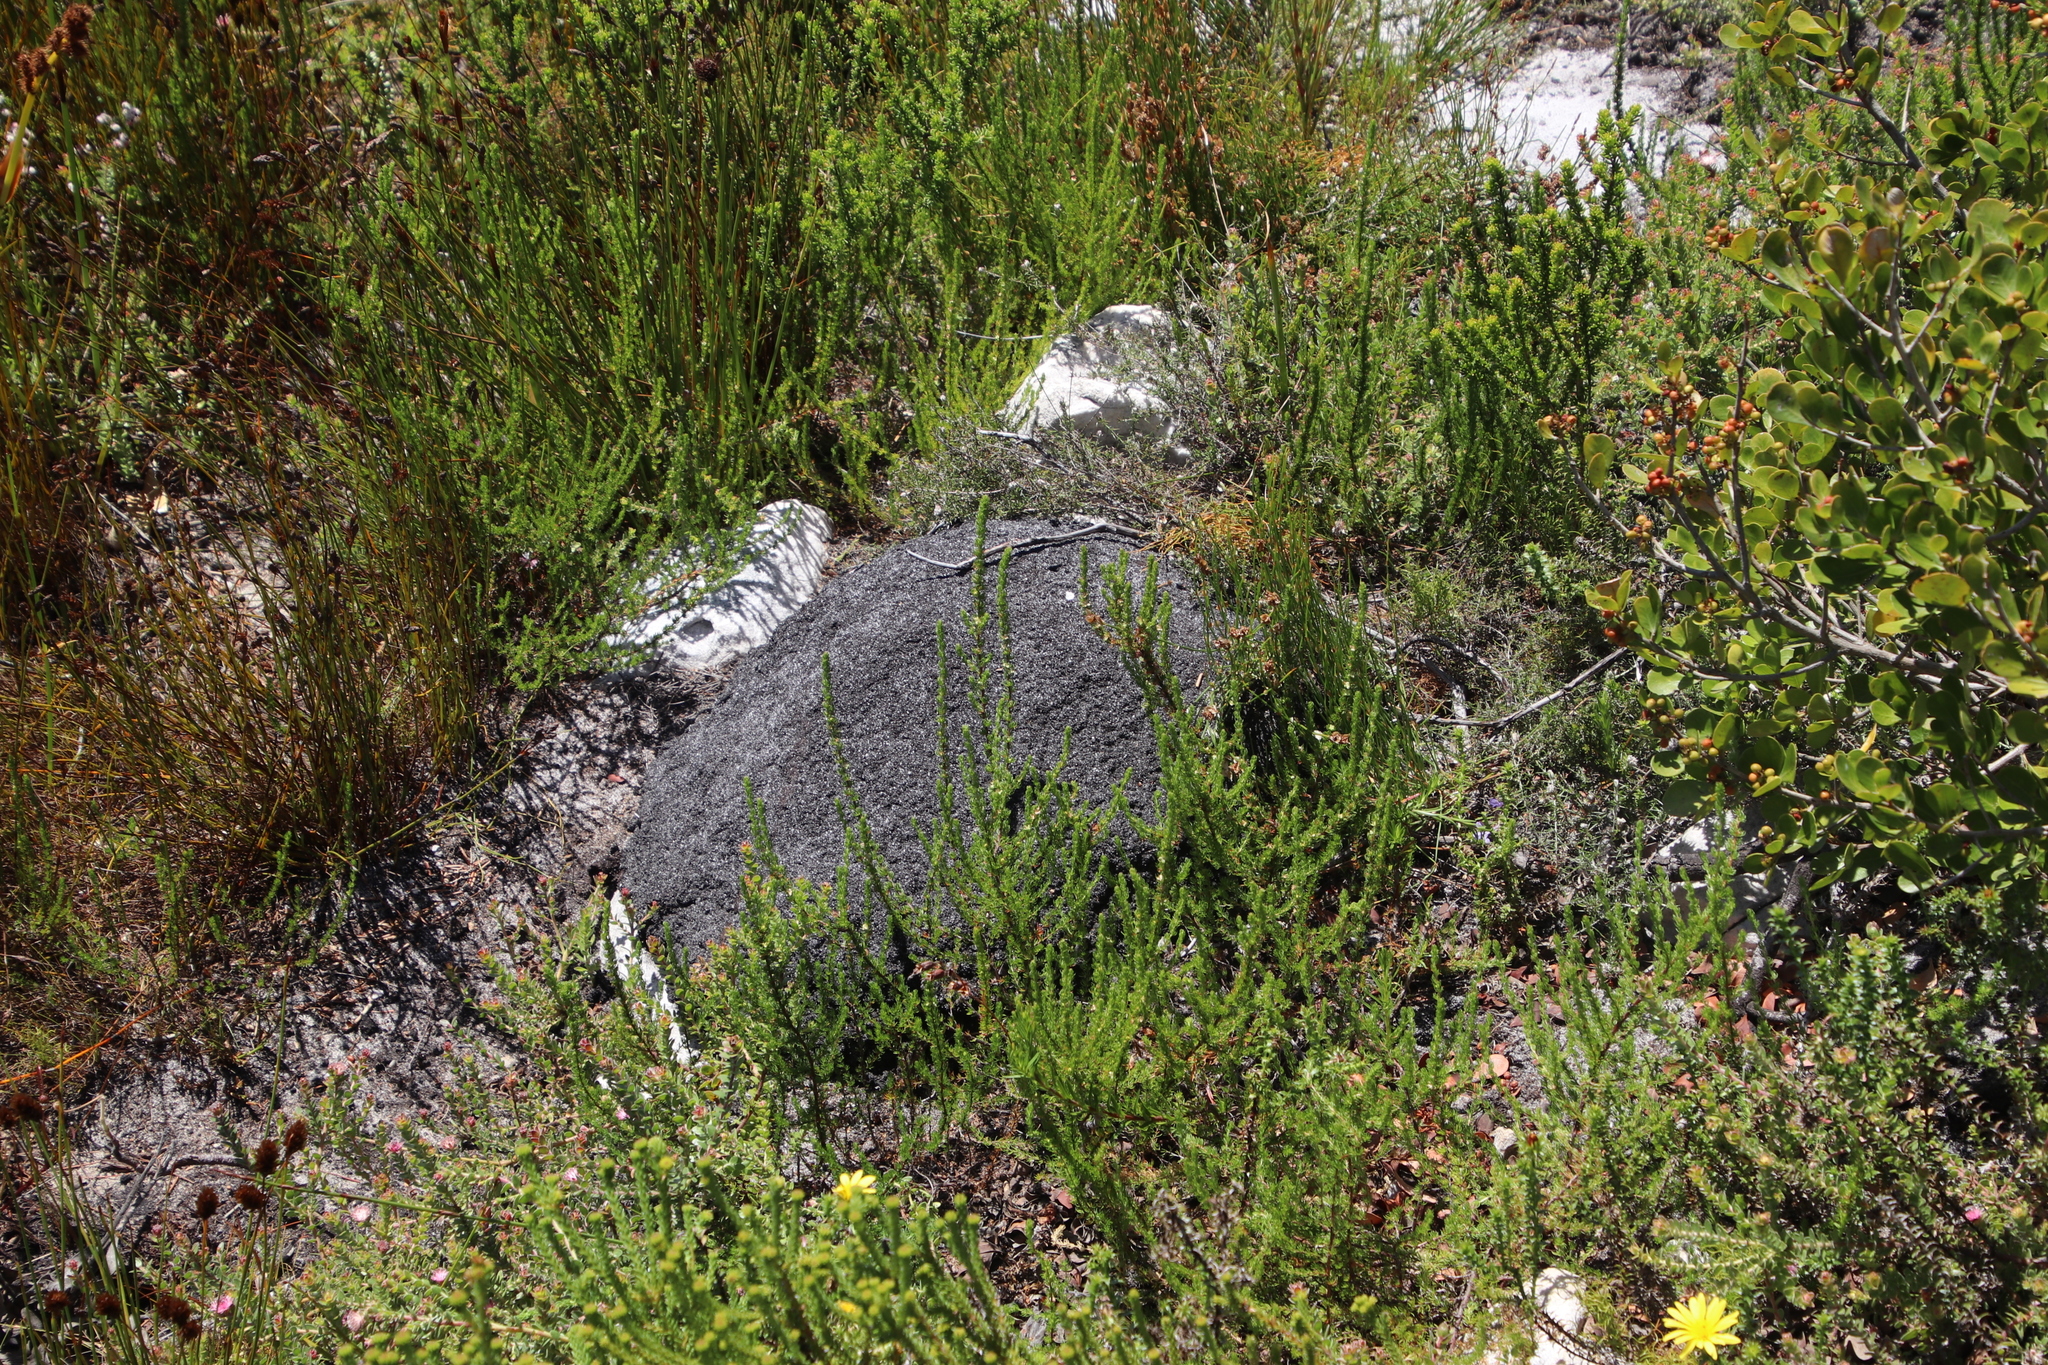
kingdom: Animalia
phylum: Arthropoda
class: Insecta
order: Blattodea
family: Termitidae
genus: Amitermes
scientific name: Amitermes hastatus
